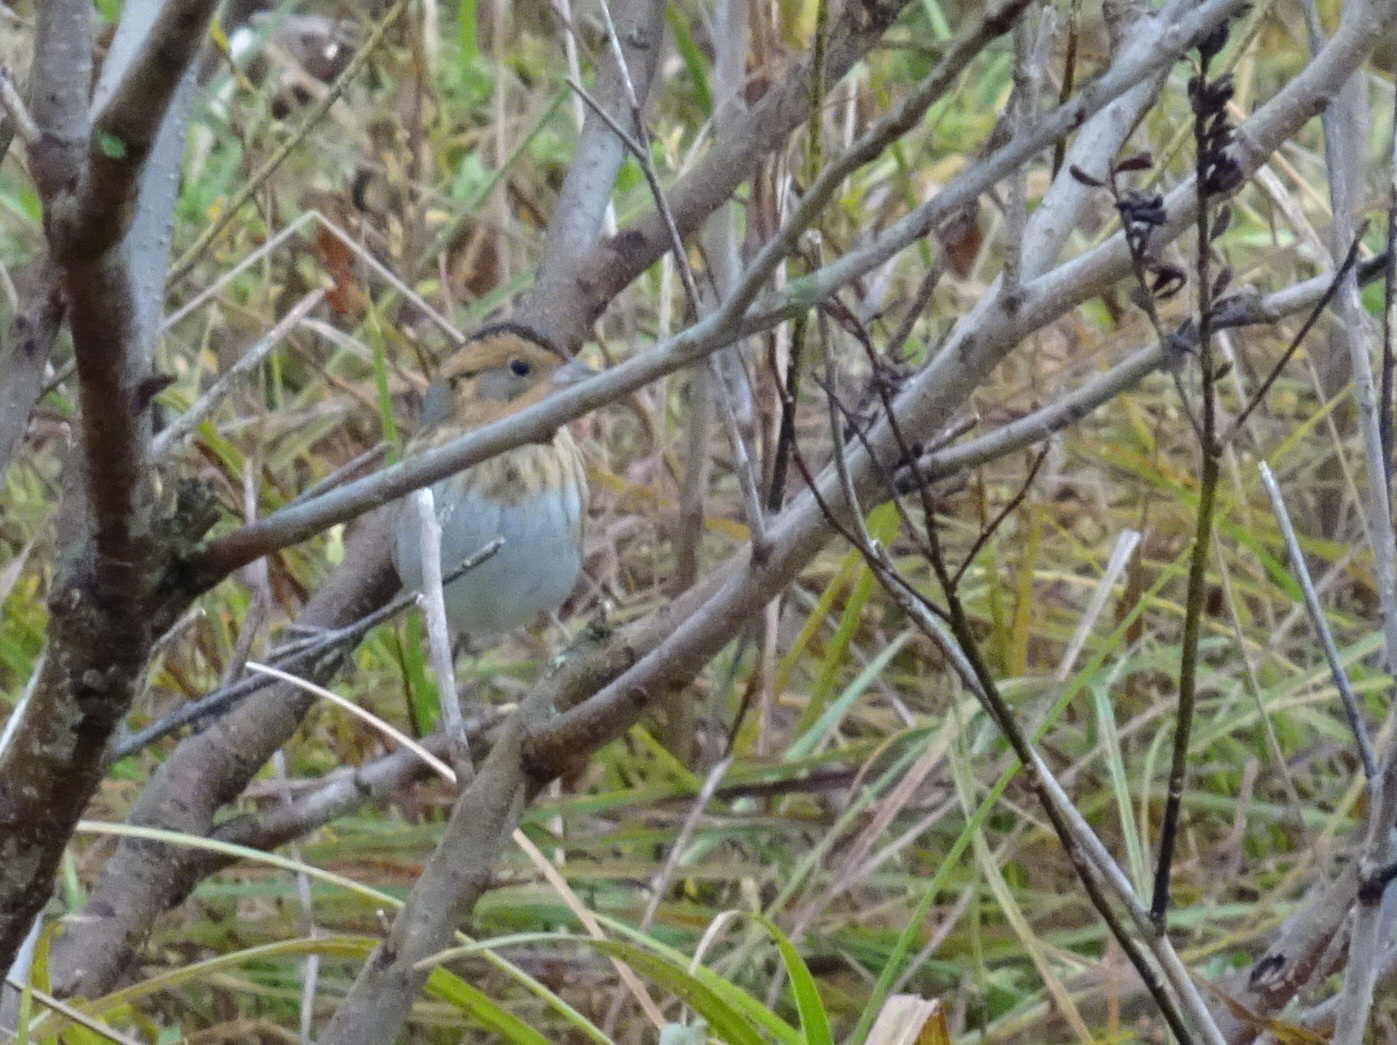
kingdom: Animalia
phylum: Chordata
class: Aves
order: Passeriformes
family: Passerellidae
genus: Ammospiza
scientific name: Ammospiza nelsoni
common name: Nelson's sparrow
